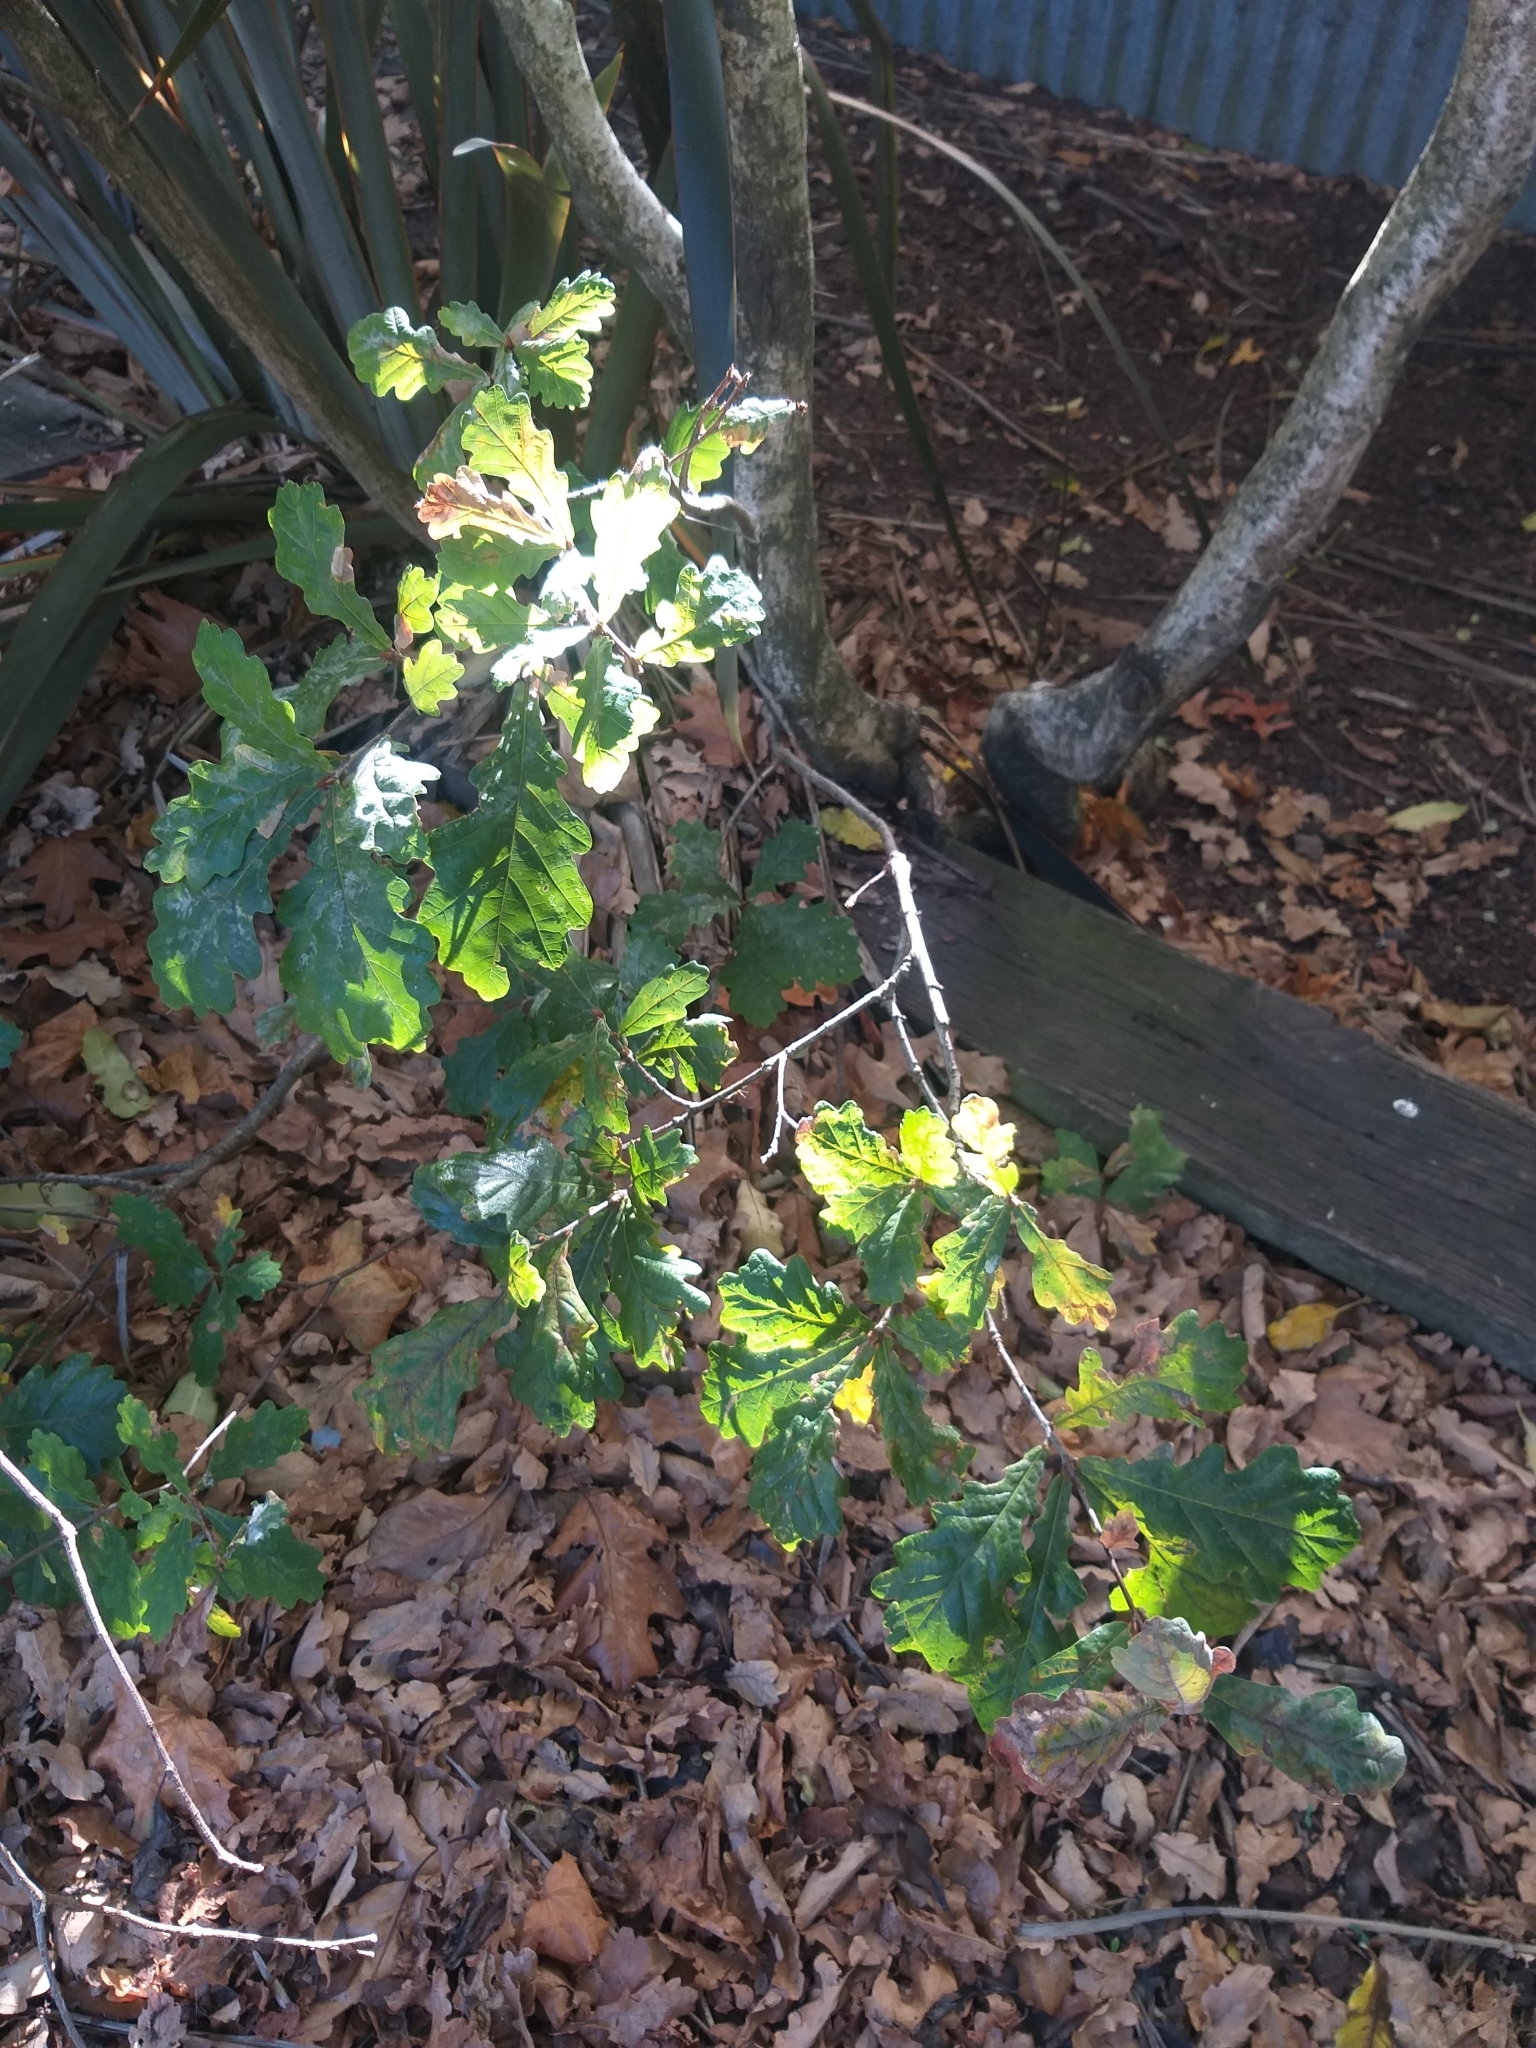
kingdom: Plantae
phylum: Tracheophyta
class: Magnoliopsida
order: Fagales
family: Fagaceae
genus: Quercus
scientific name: Quercus robur
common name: Pedunculate oak
